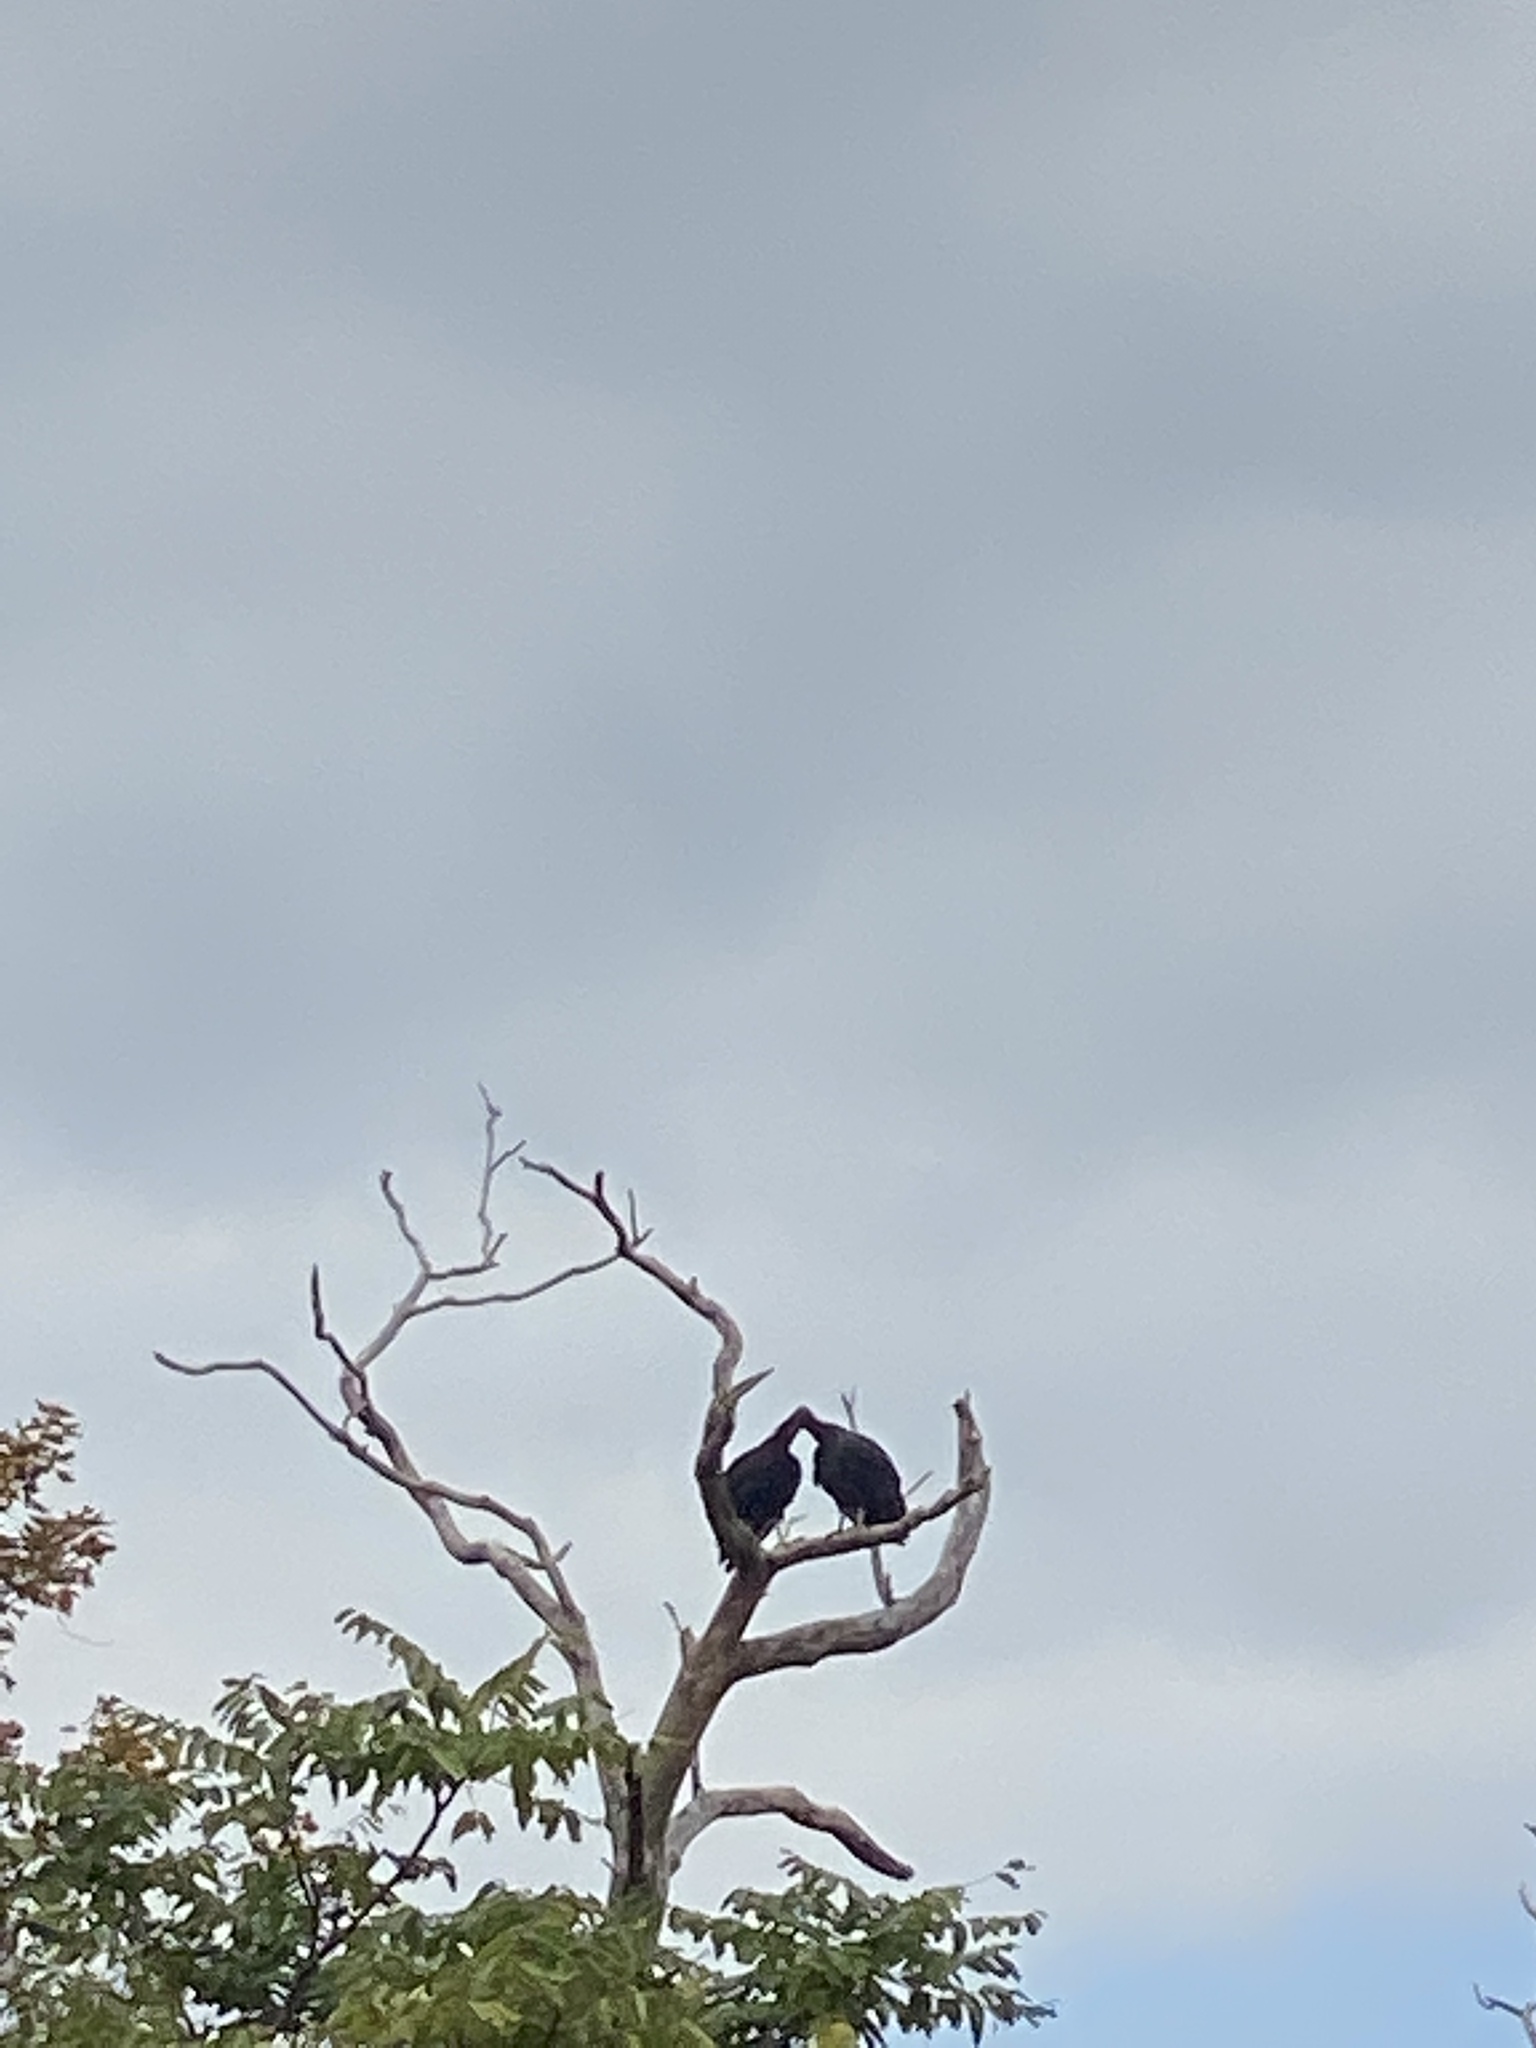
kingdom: Animalia
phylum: Chordata
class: Aves
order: Accipitriformes
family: Cathartidae
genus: Coragyps
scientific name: Coragyps atratus
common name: Black vulture
